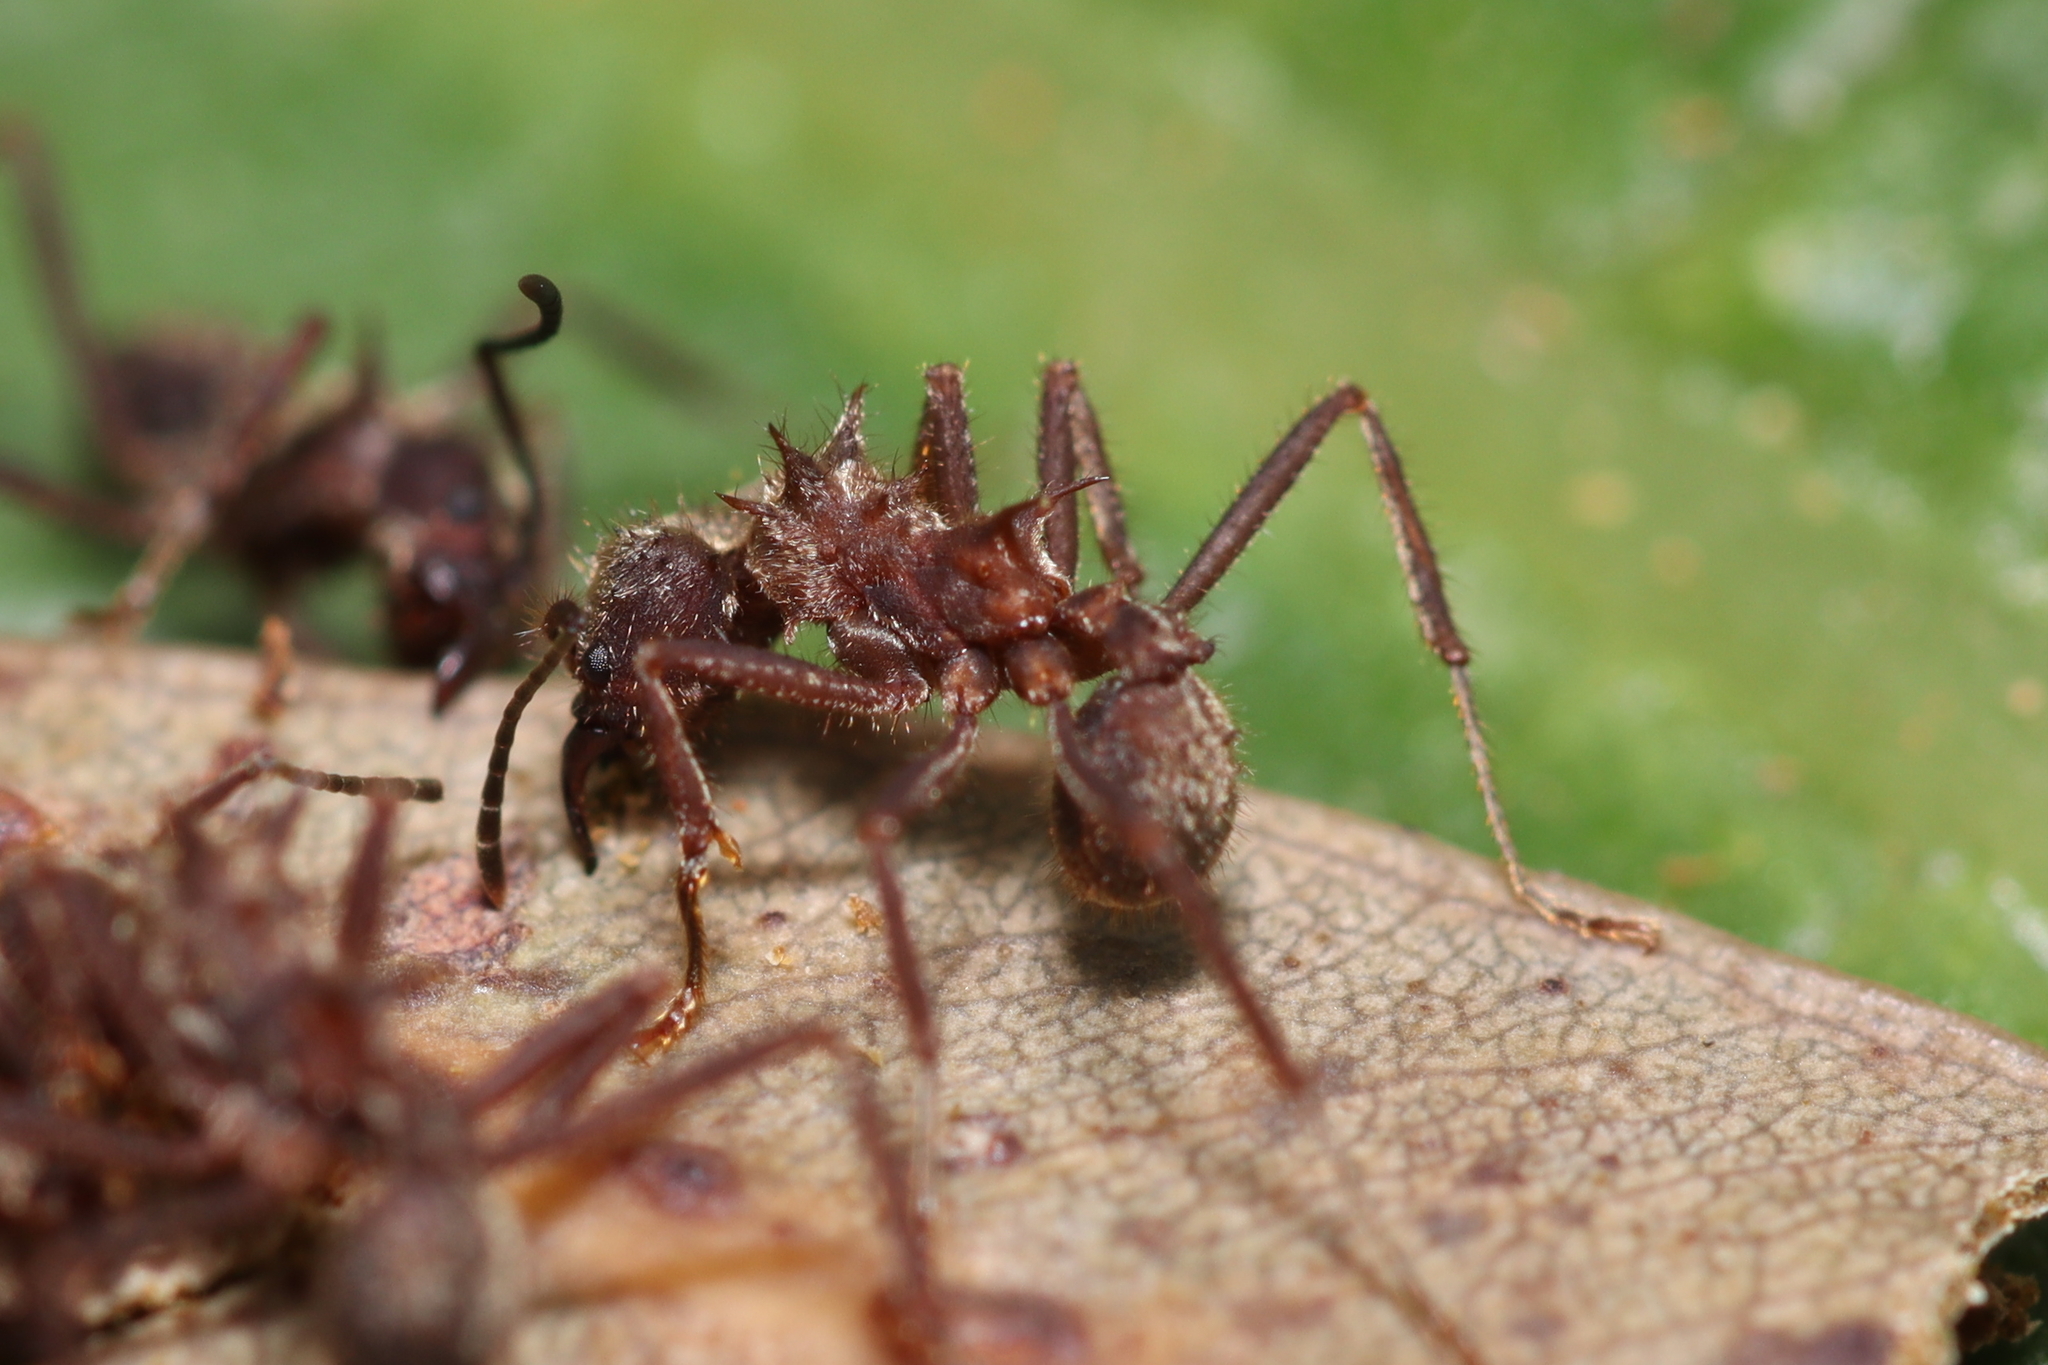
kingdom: Animalia
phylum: Arthropoda
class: Insecta
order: Hymenoptera
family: Formicidae
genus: Acromyrmex
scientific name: Acromyrmex disciger
